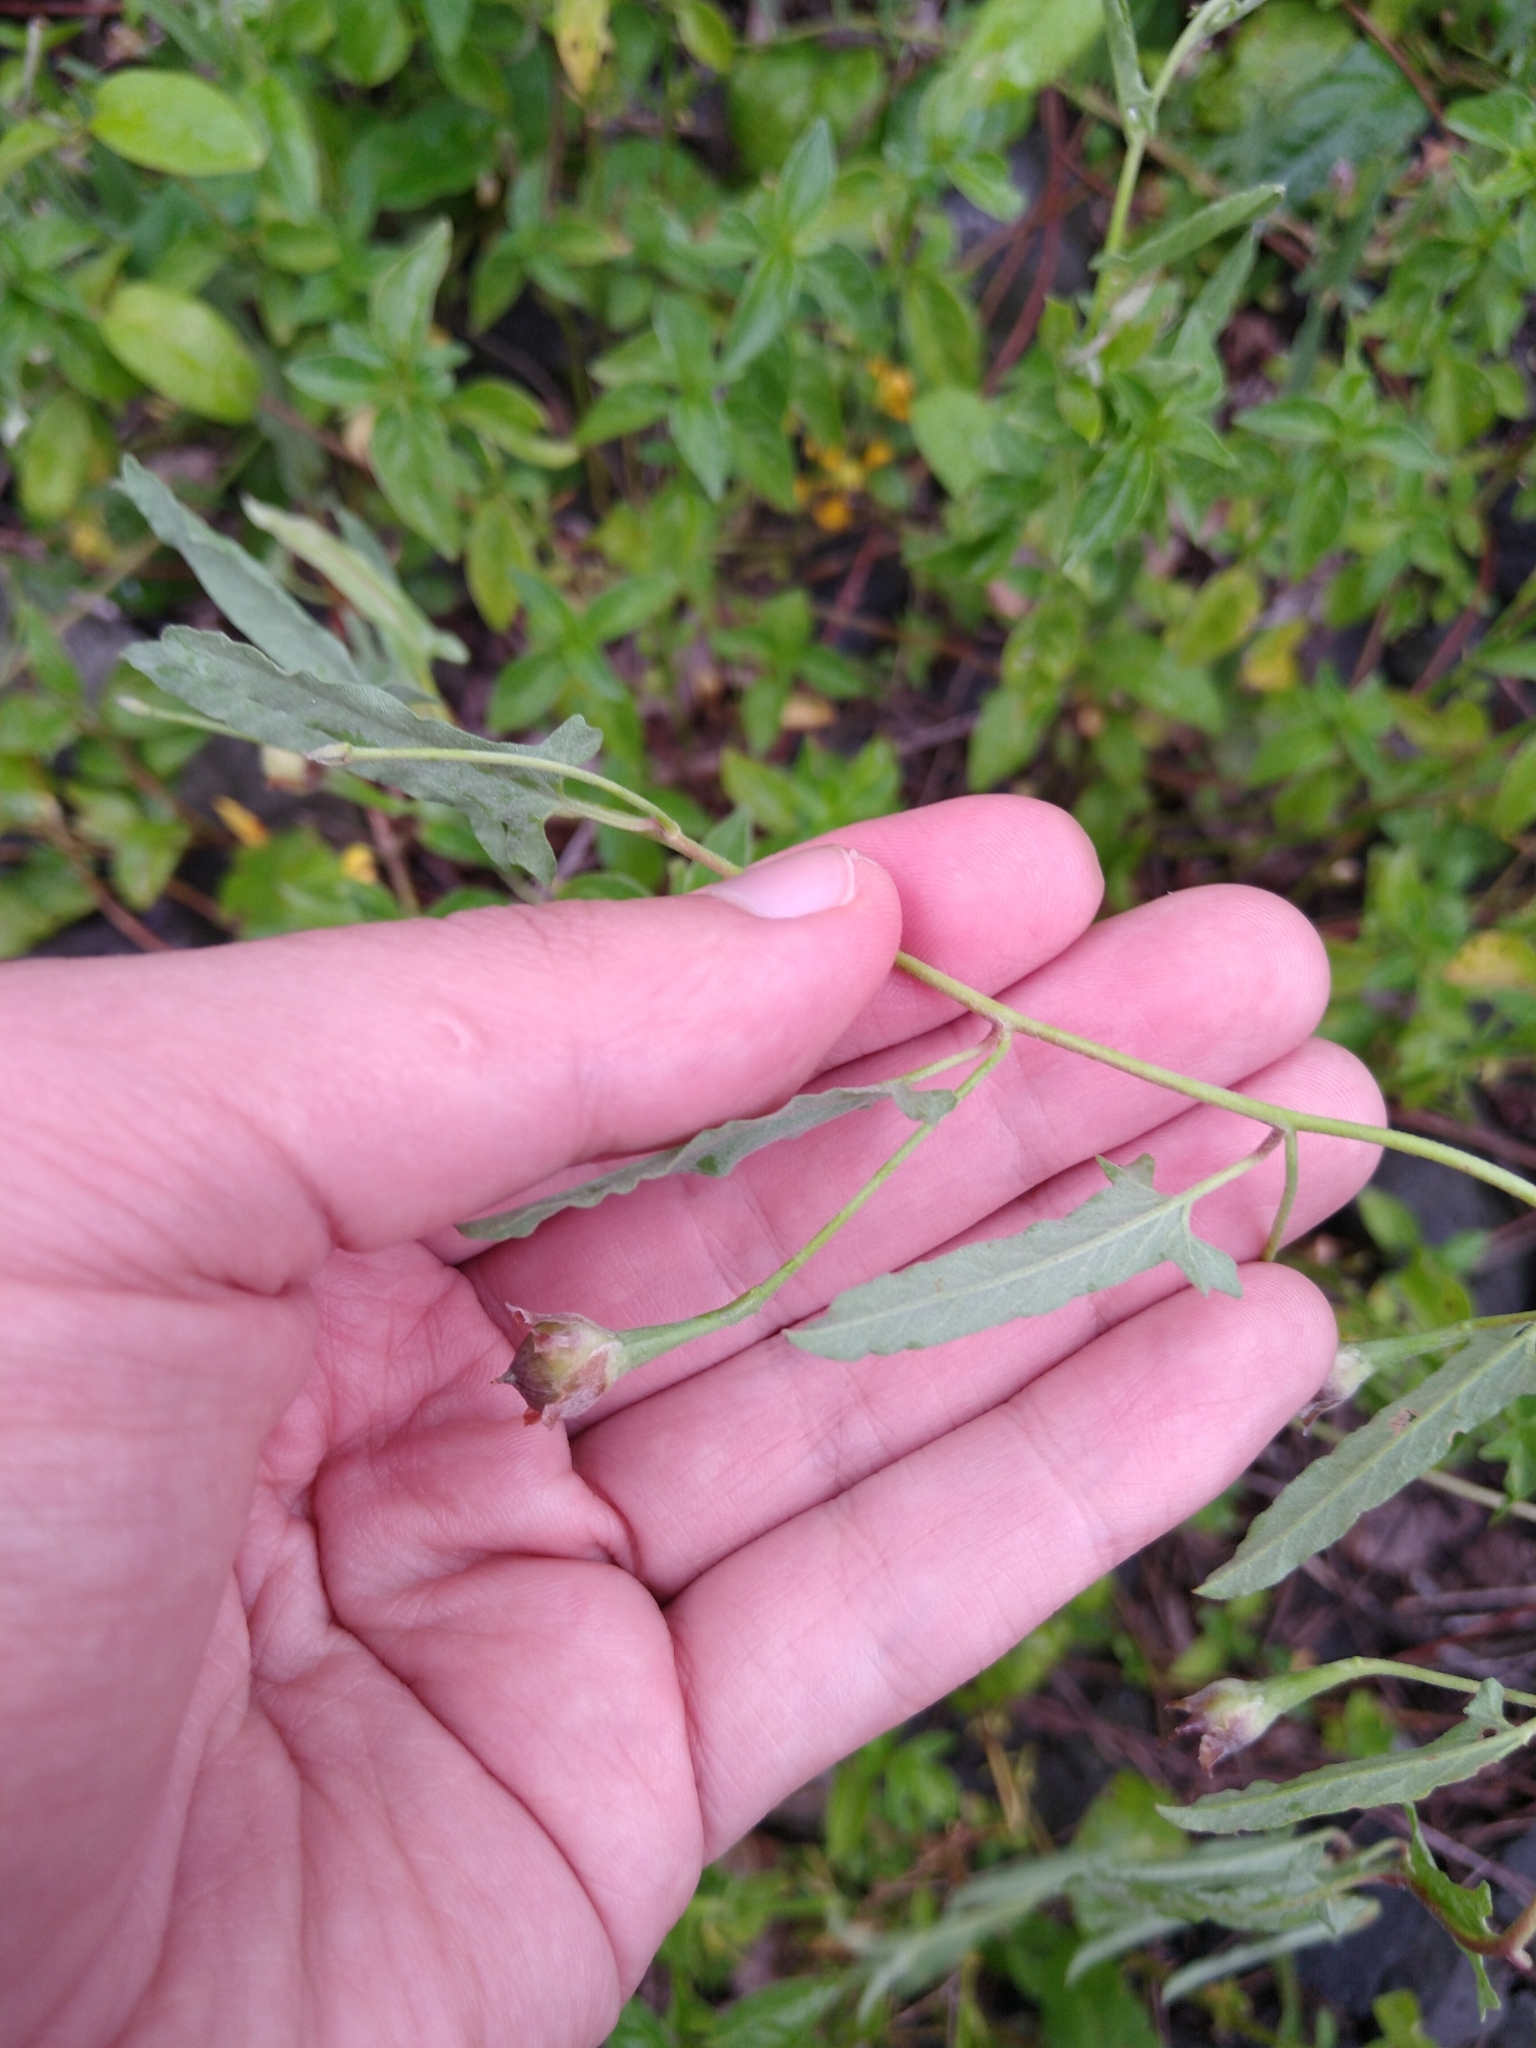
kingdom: Plantae
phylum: Tracheophyta
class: Magnoliopsida
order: Solanales
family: Convolvulaceae
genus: Convolvulus
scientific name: Convolvulus equitans
